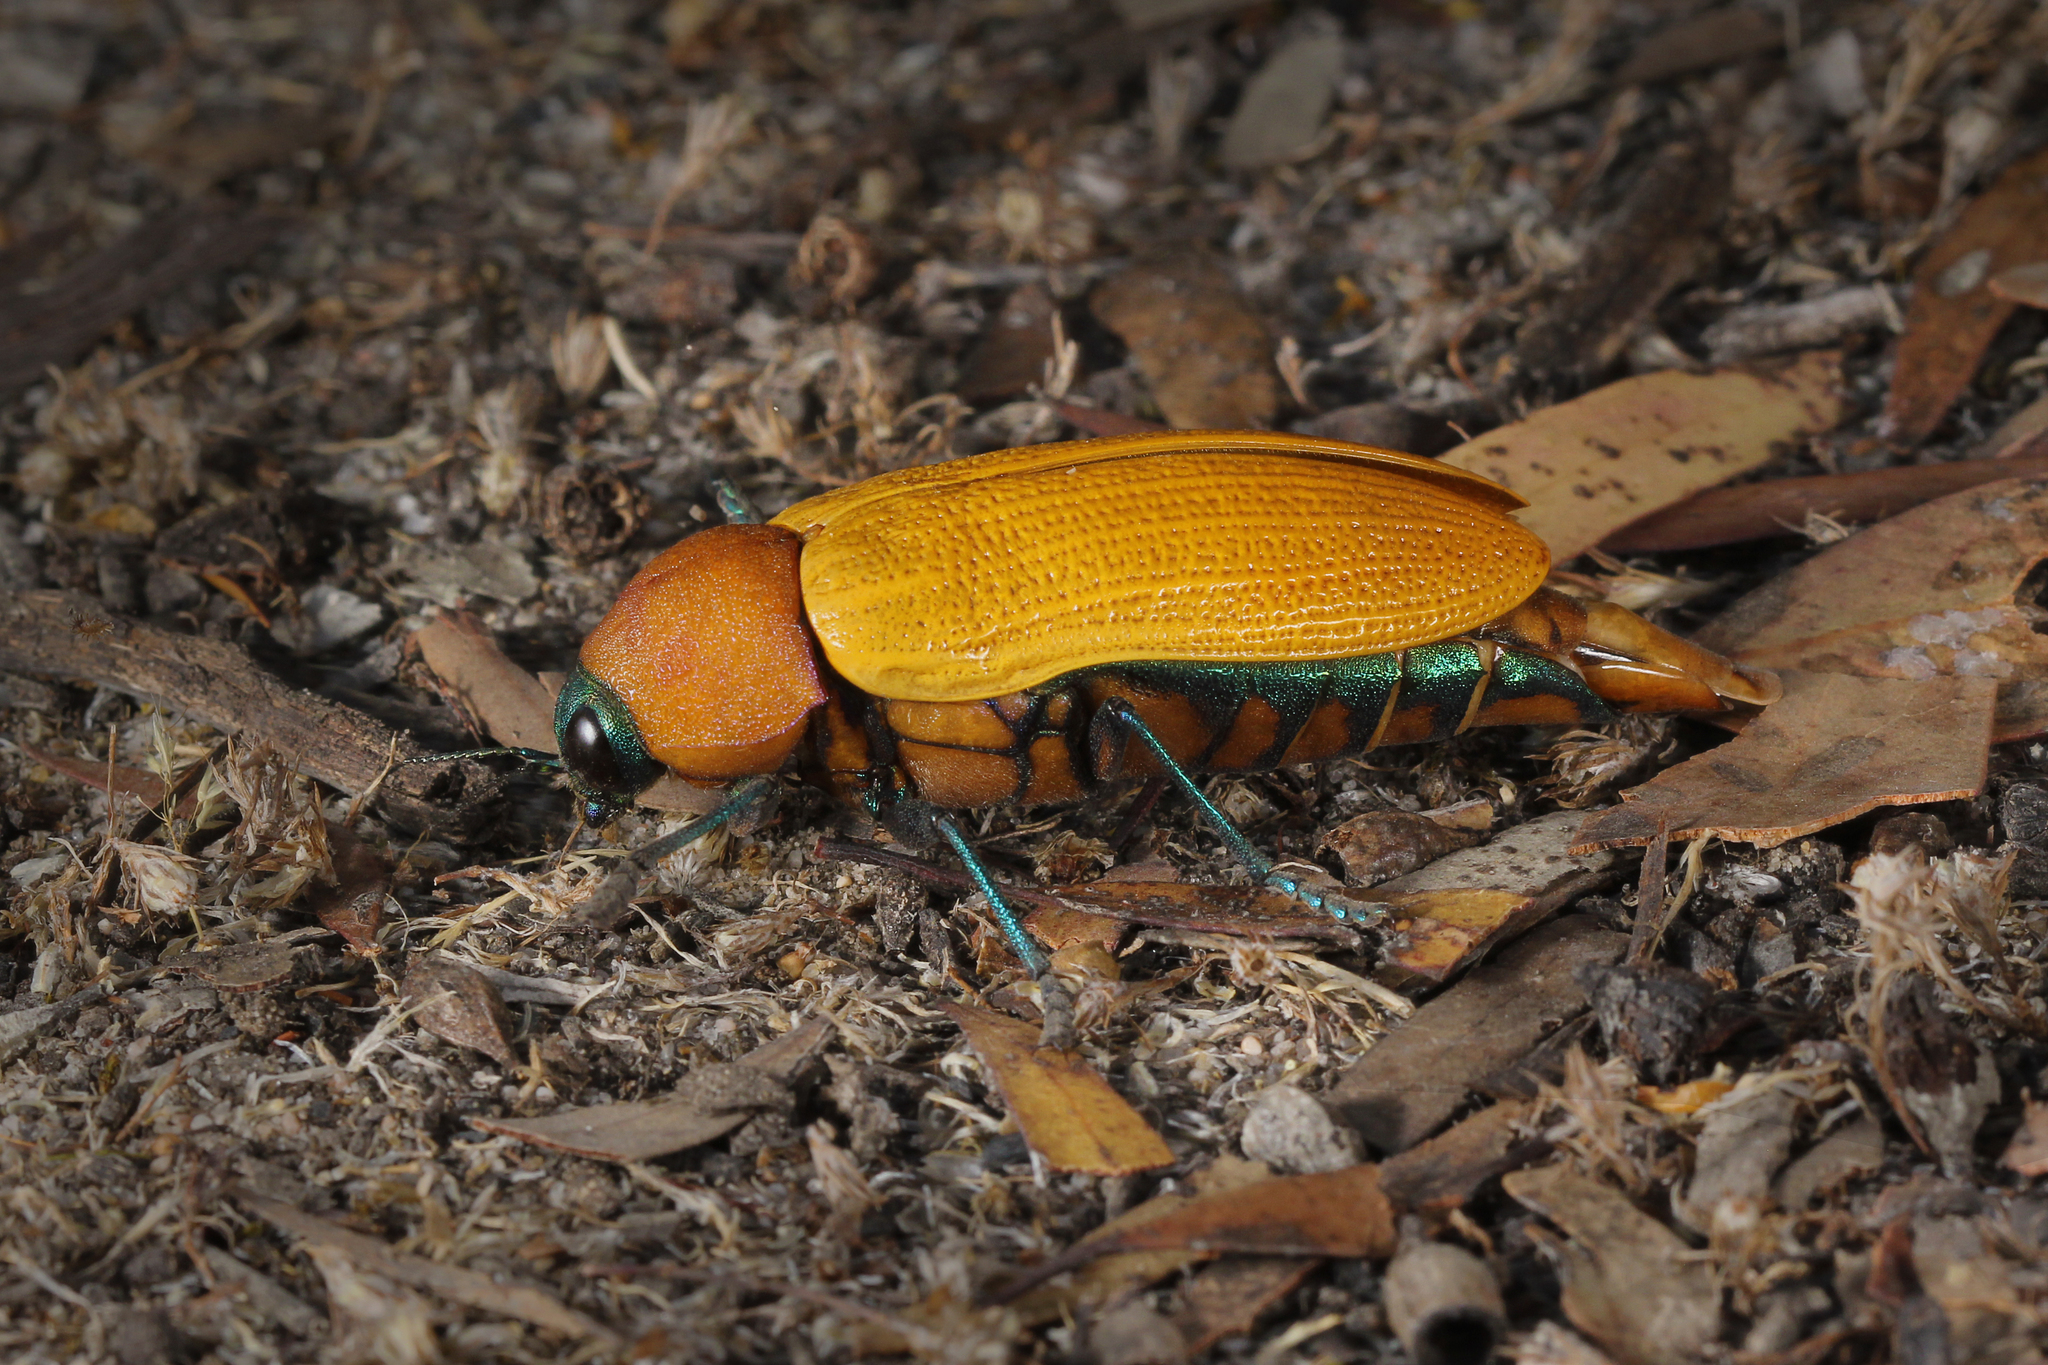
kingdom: Animalia
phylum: Arthropoda
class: Insecta
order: Coleoptera
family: Buprestidae
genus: Julodimorpha
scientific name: Julodimorpha bakewellii
